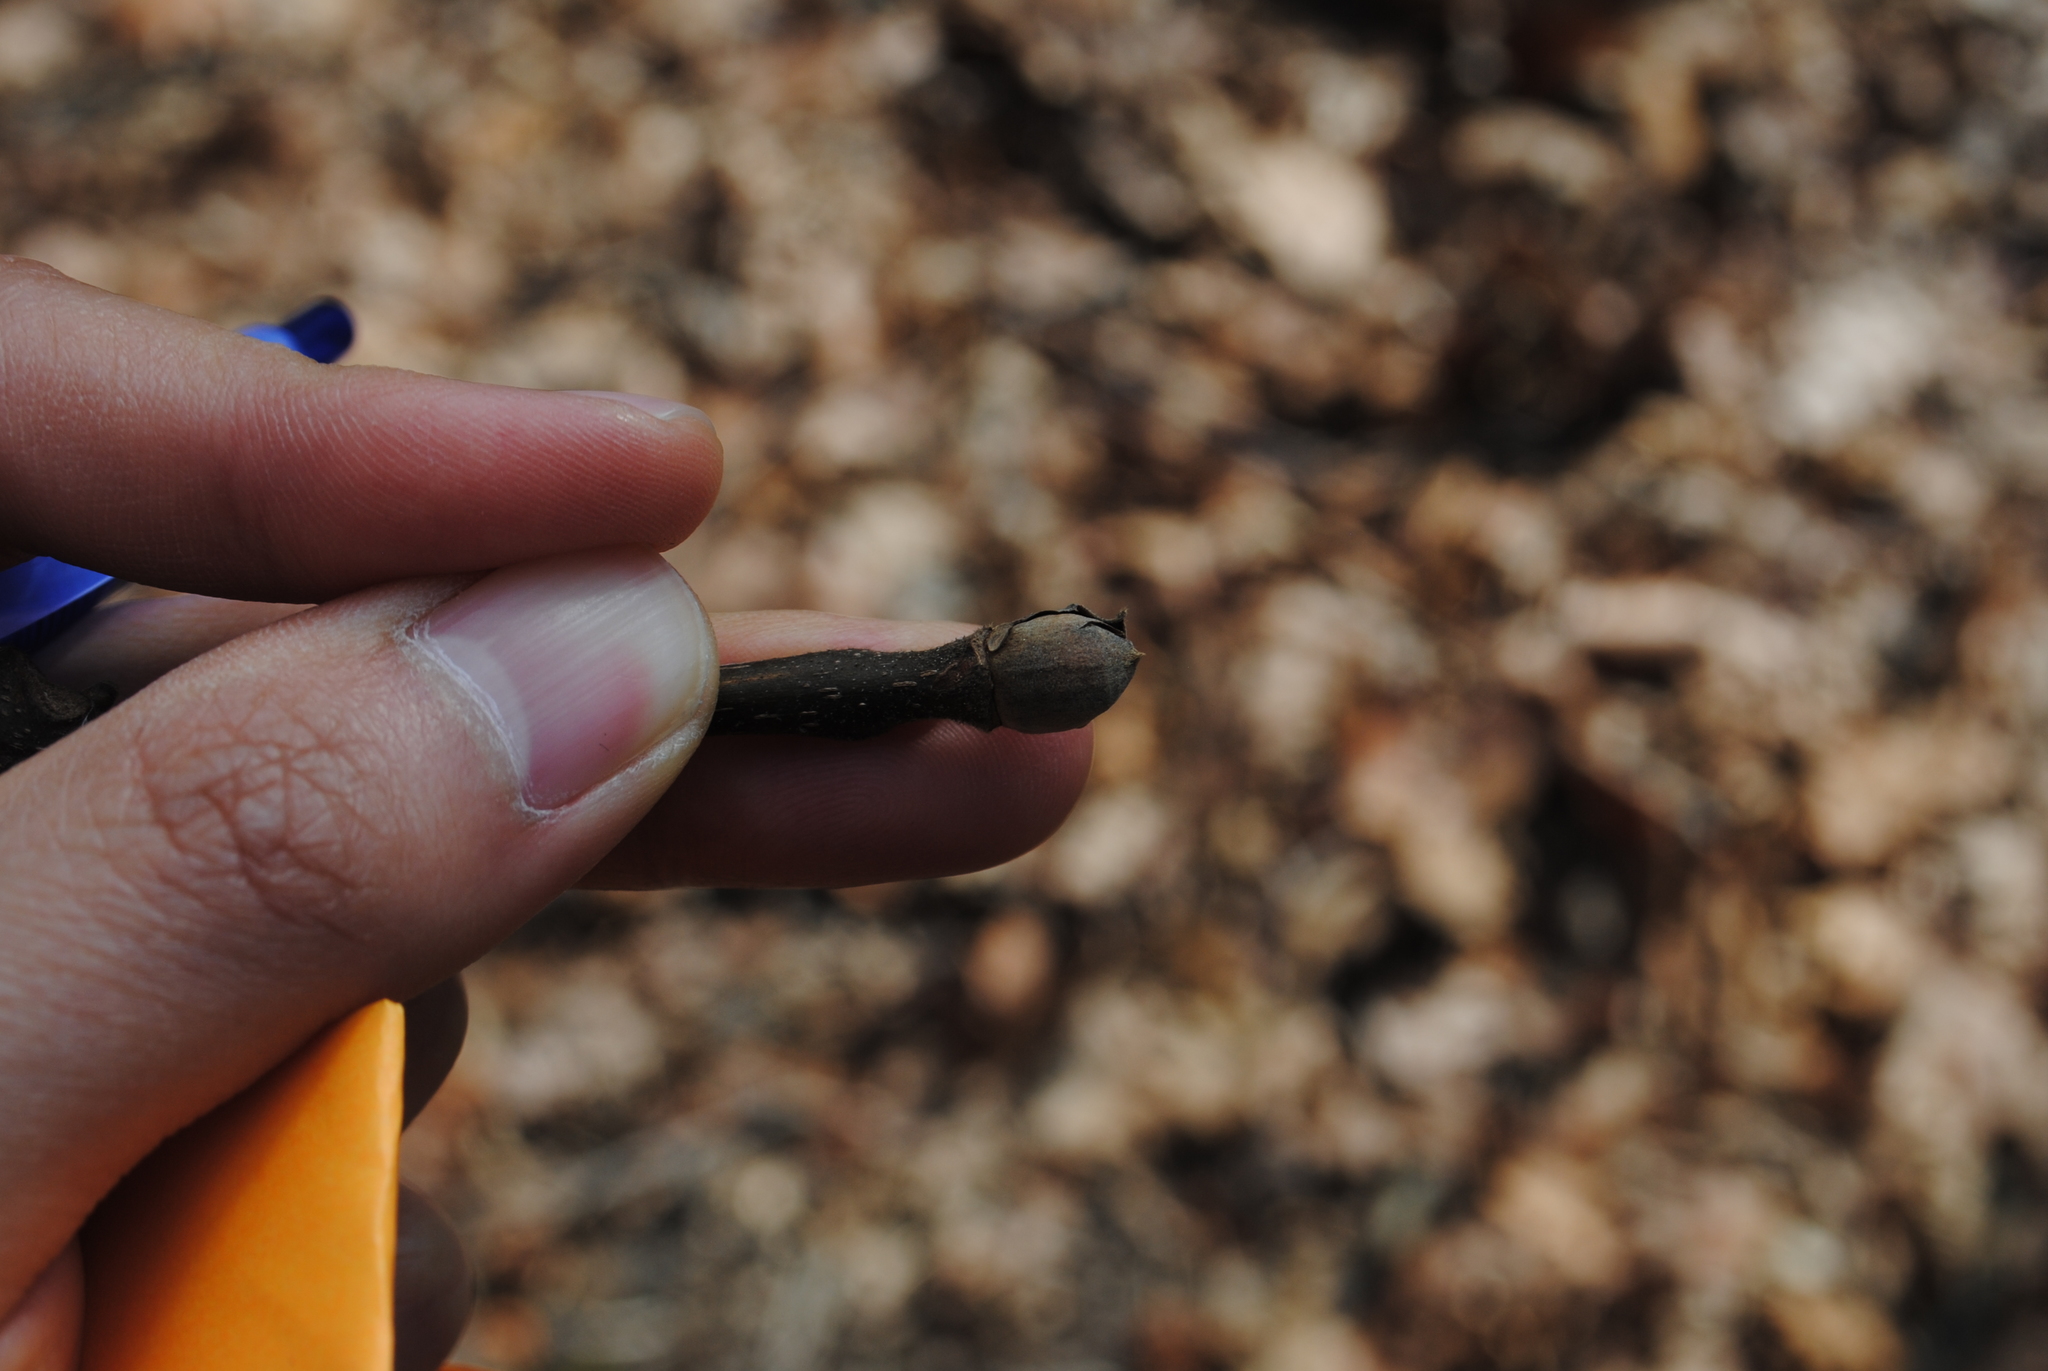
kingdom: Plantae
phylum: Tracheophyta
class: Magnoliopsida
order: Fagales
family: Juglandaceae
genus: Carya
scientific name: Carya alba
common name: Mockernut hickory
